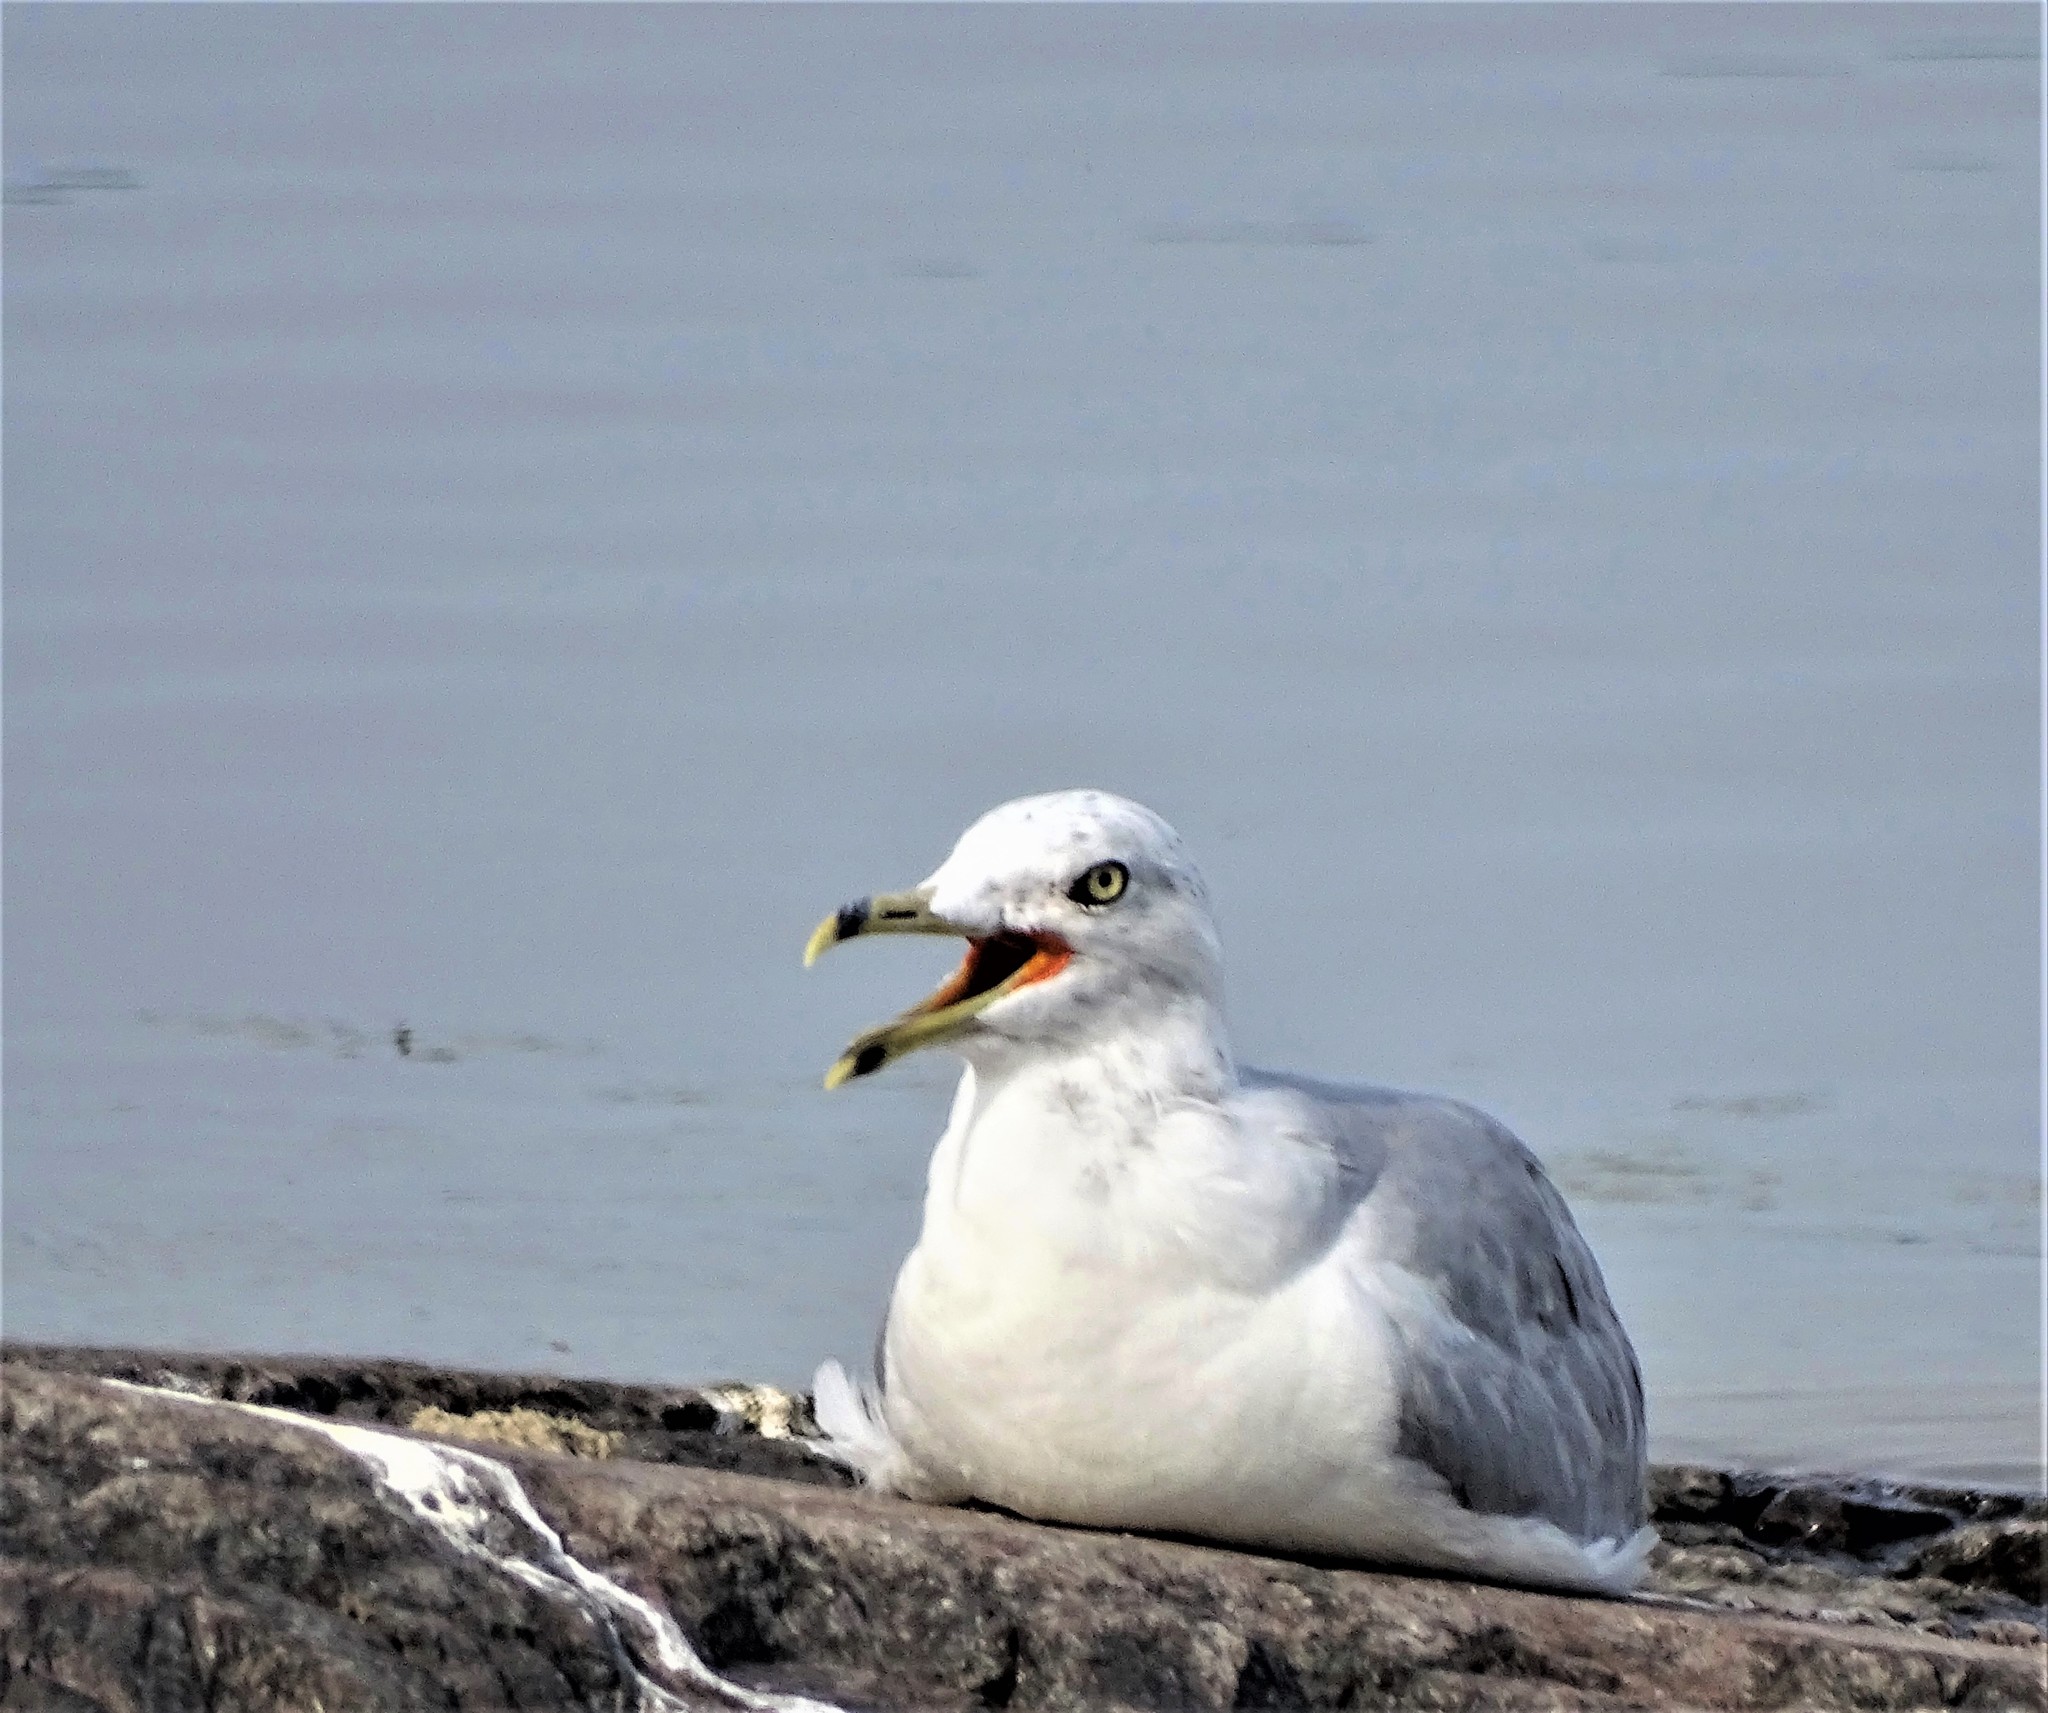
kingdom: Animalia
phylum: Chordata
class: Aves
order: Charadriiformes
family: Laridae
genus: Larus
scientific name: Larus delawarensis
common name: Ring-billed gull
